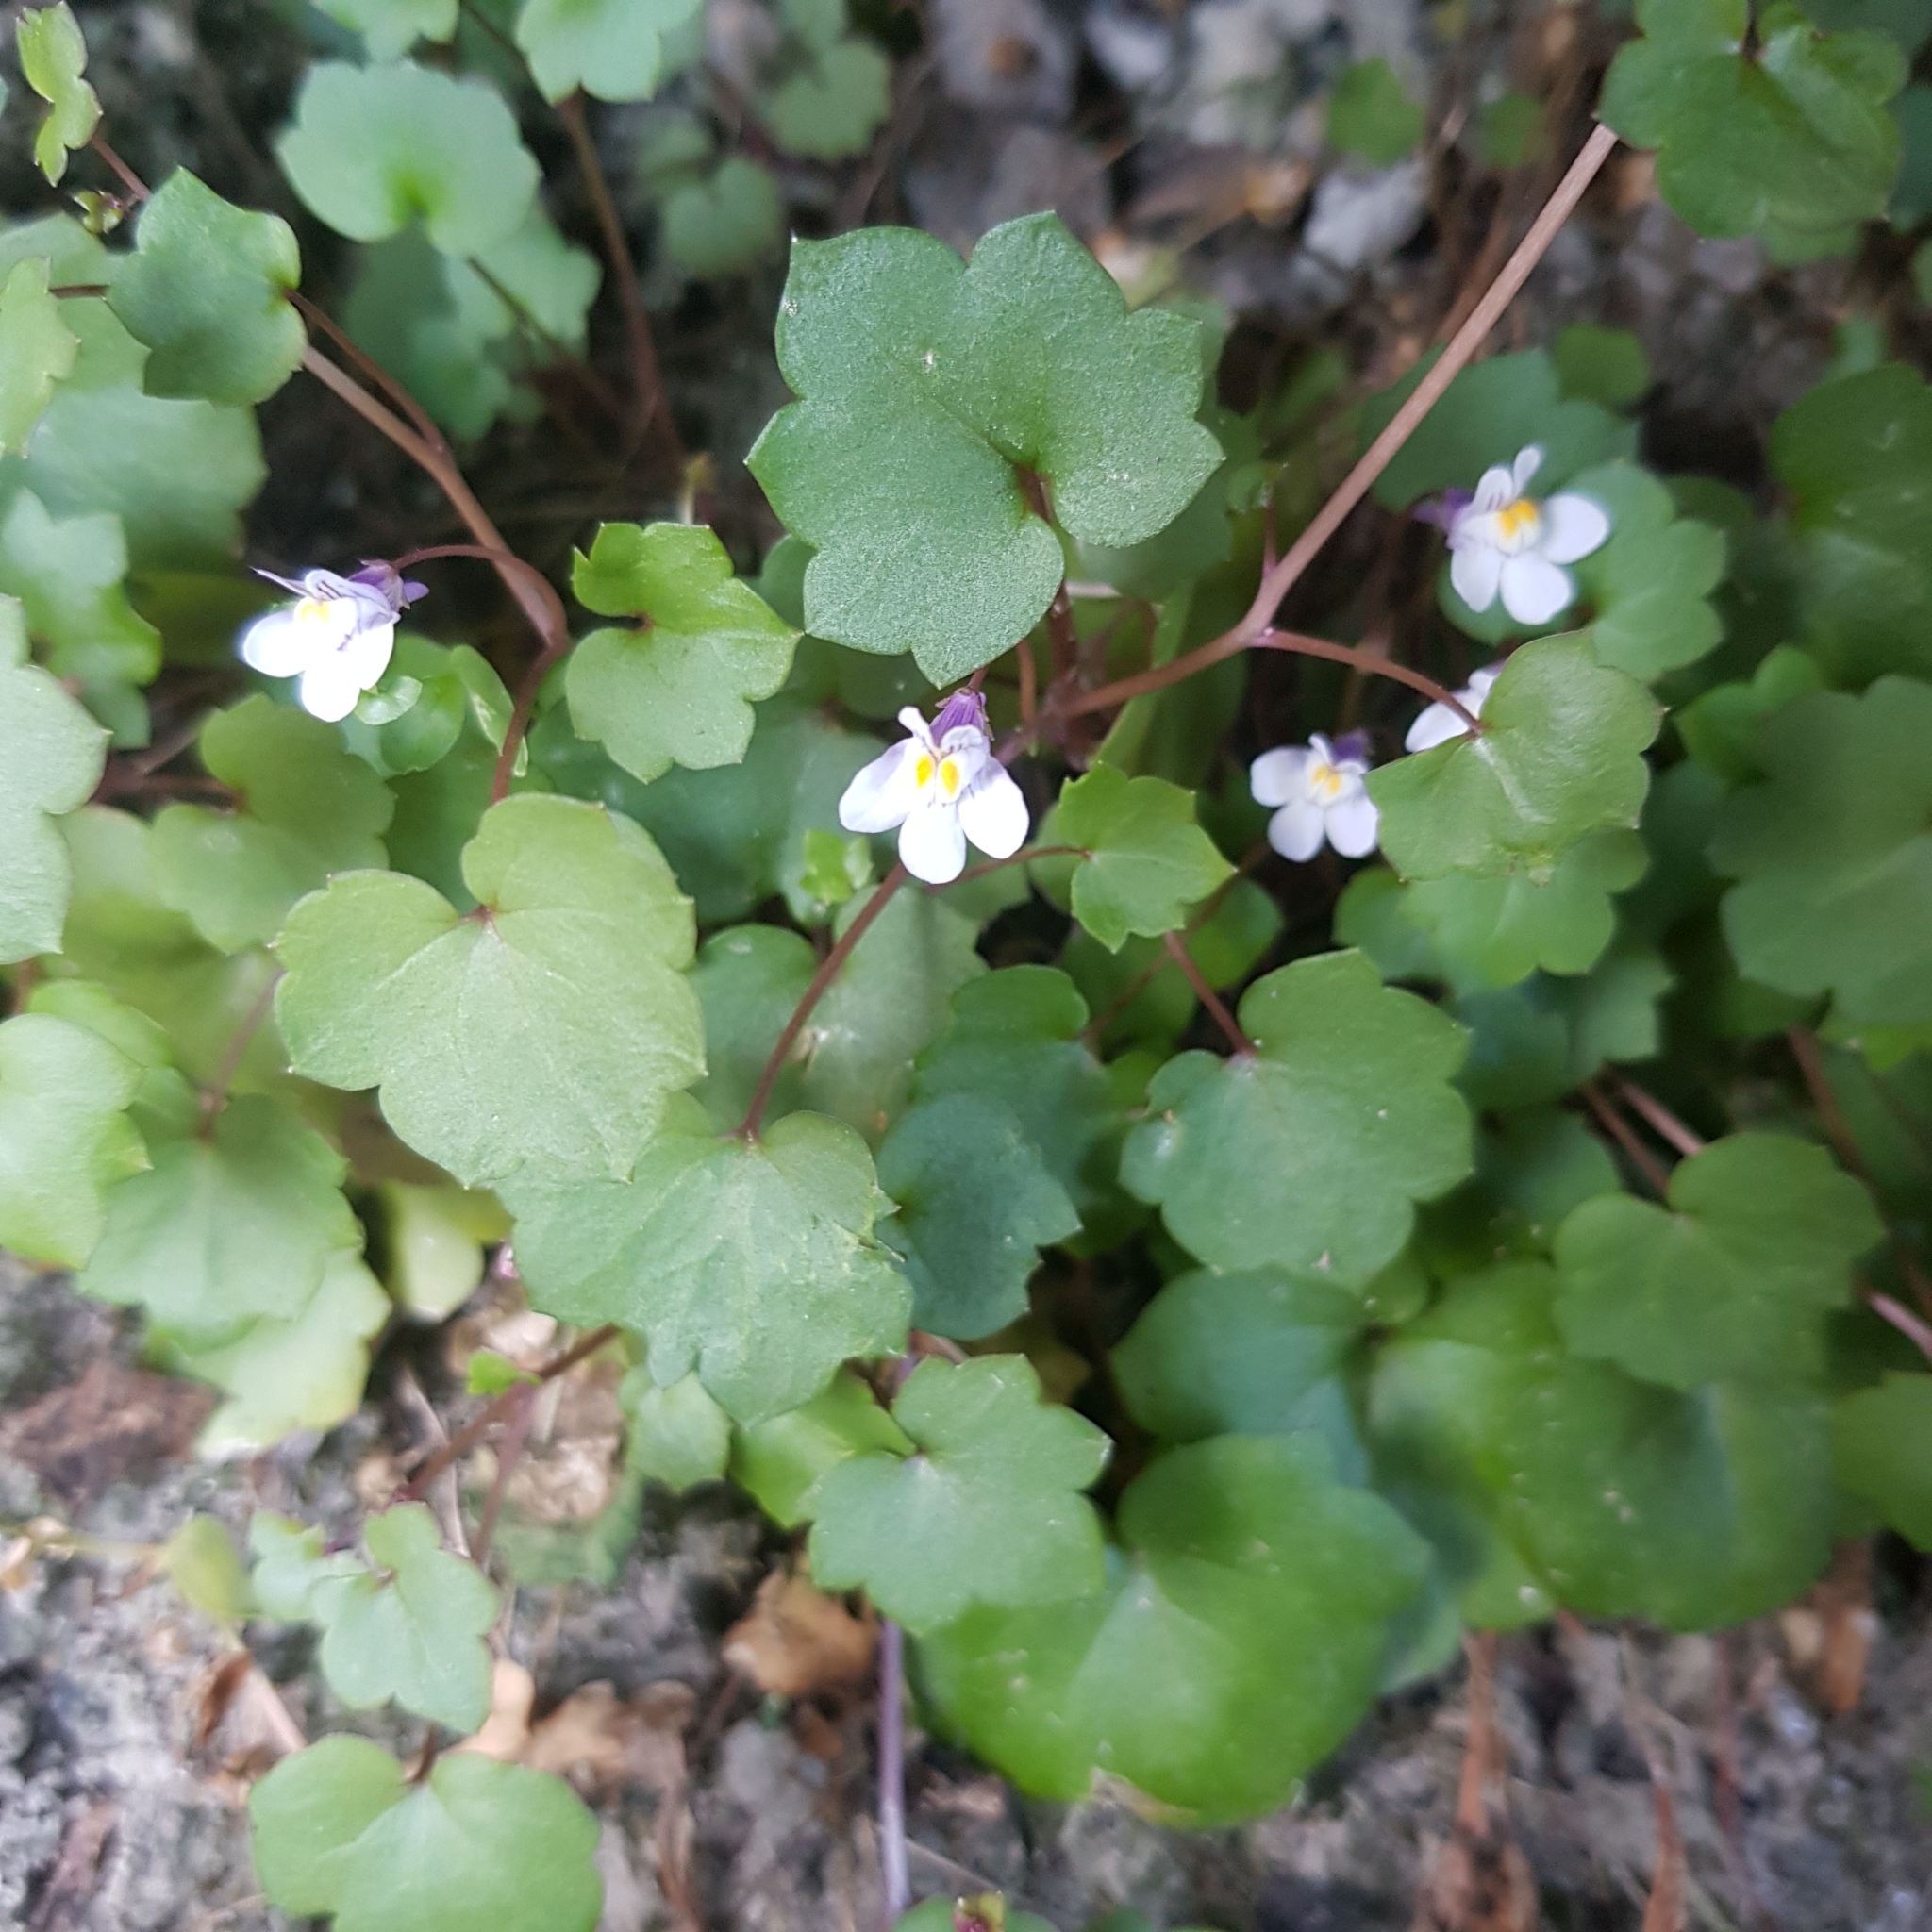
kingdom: Plantae
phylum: Tracheophyta
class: Magnoliopsida
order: Lamiales
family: Plantaginaceae
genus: Cymbalaria
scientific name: Cymbalaria muralis
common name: Ivy-leaved toadflax
